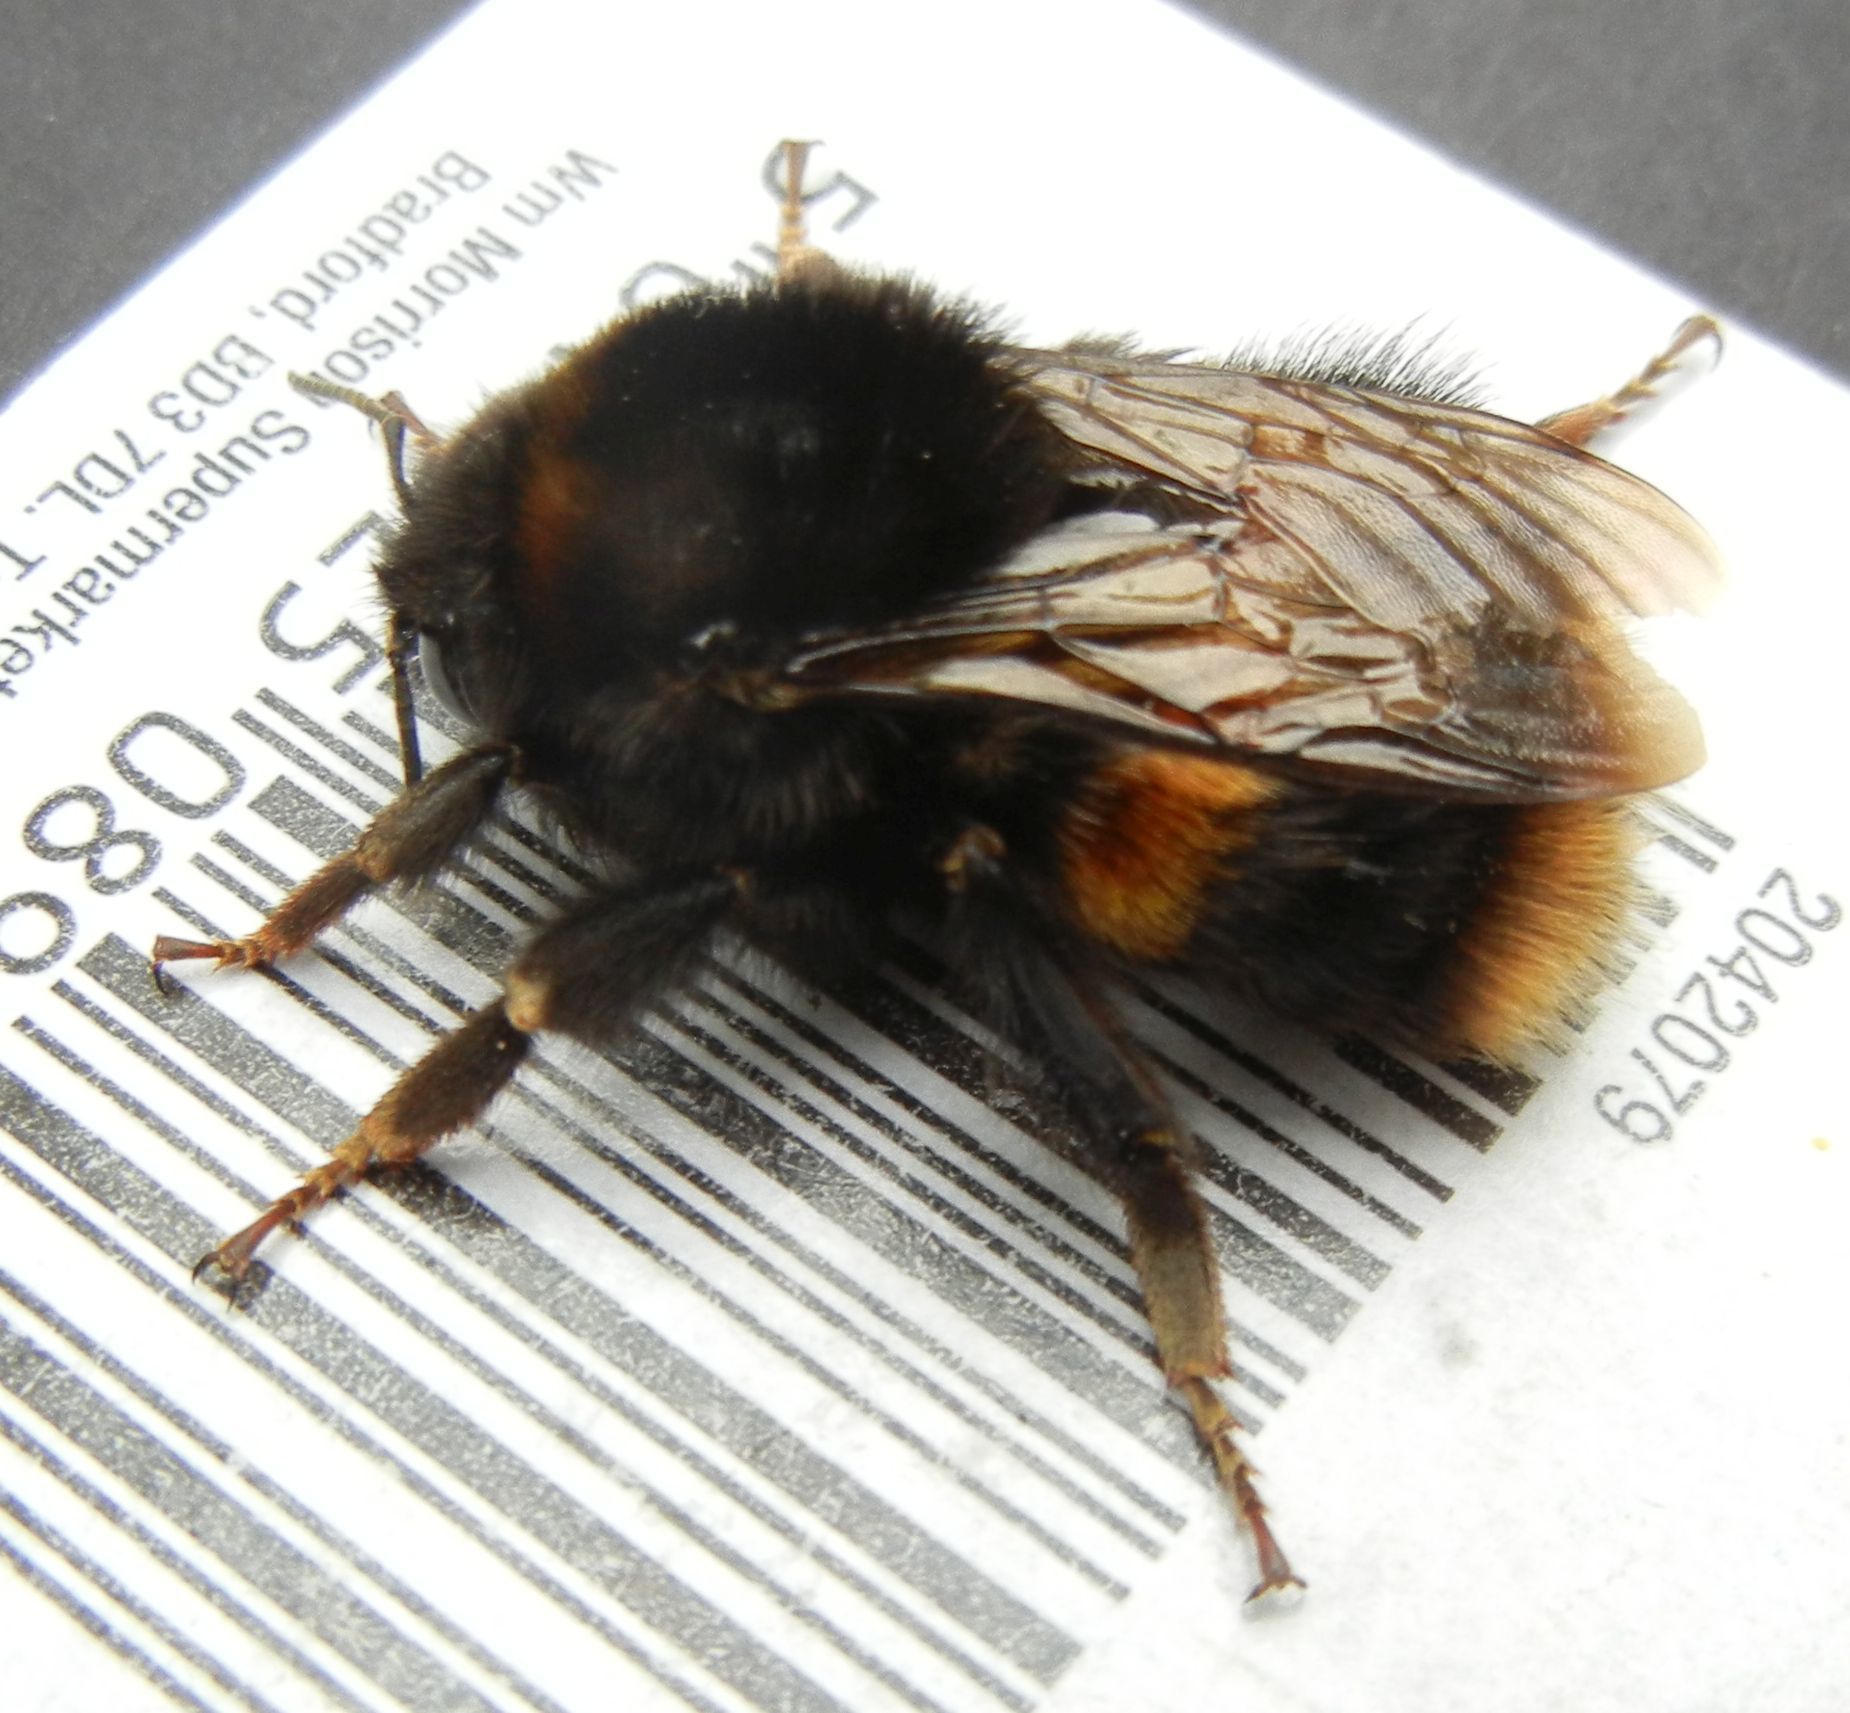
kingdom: Animalia
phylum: Arthropoda
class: Insecta
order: Hymenoptera
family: Apidae
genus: Bombus
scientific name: Bombus terrestris
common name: Buff-tailed bumblebee
